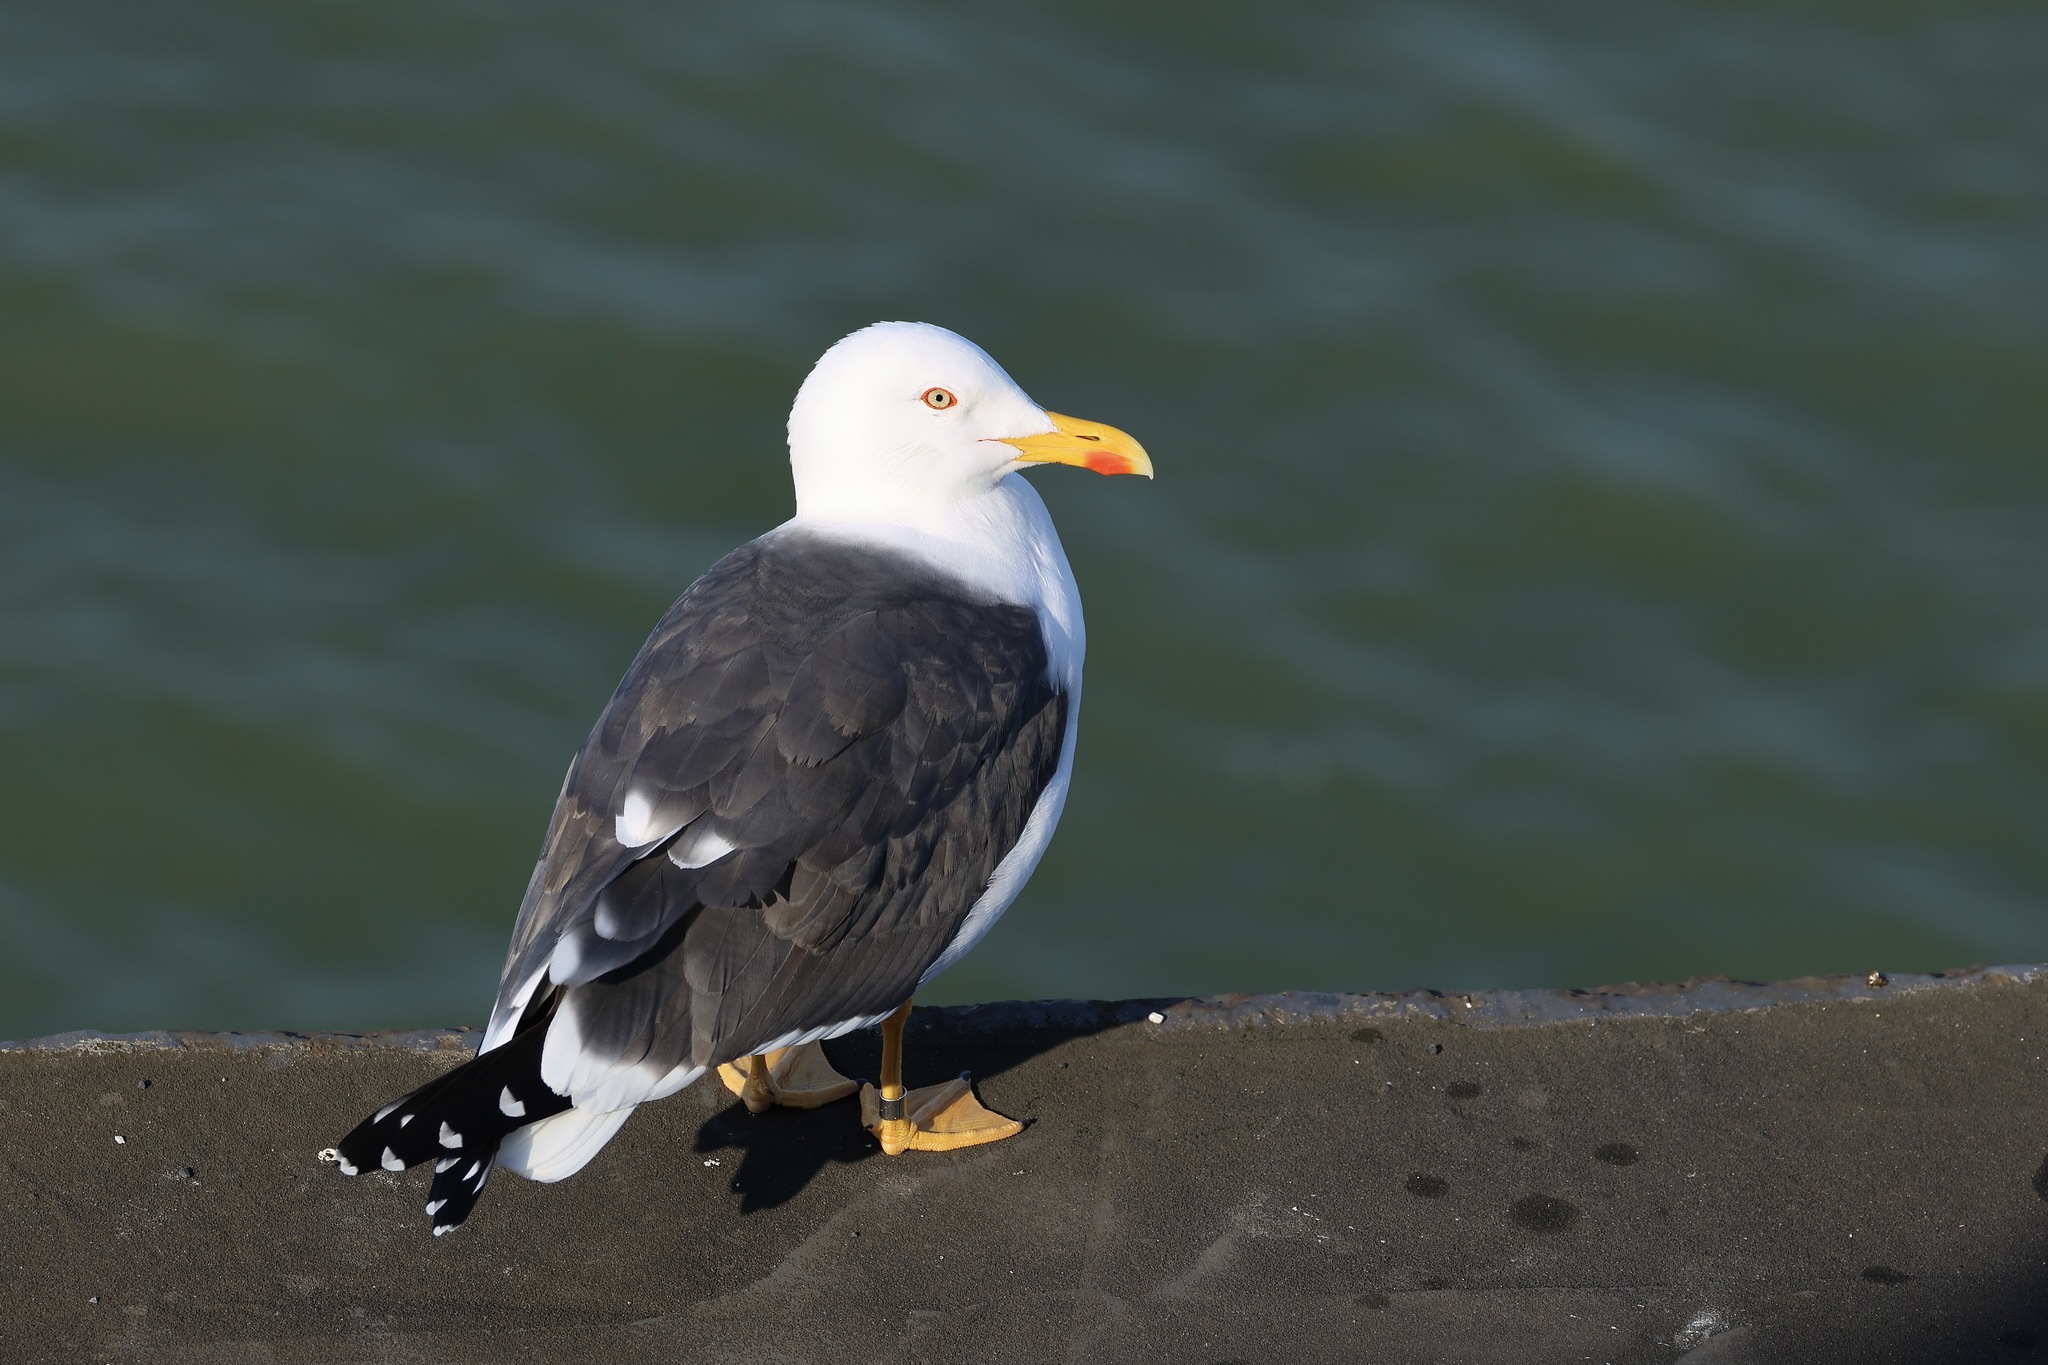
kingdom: Animalia
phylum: Chordata
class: Aves
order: Charadriiformes
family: Laridae
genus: Larus
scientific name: Larus fuscus
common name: Lesser black-backed gull
